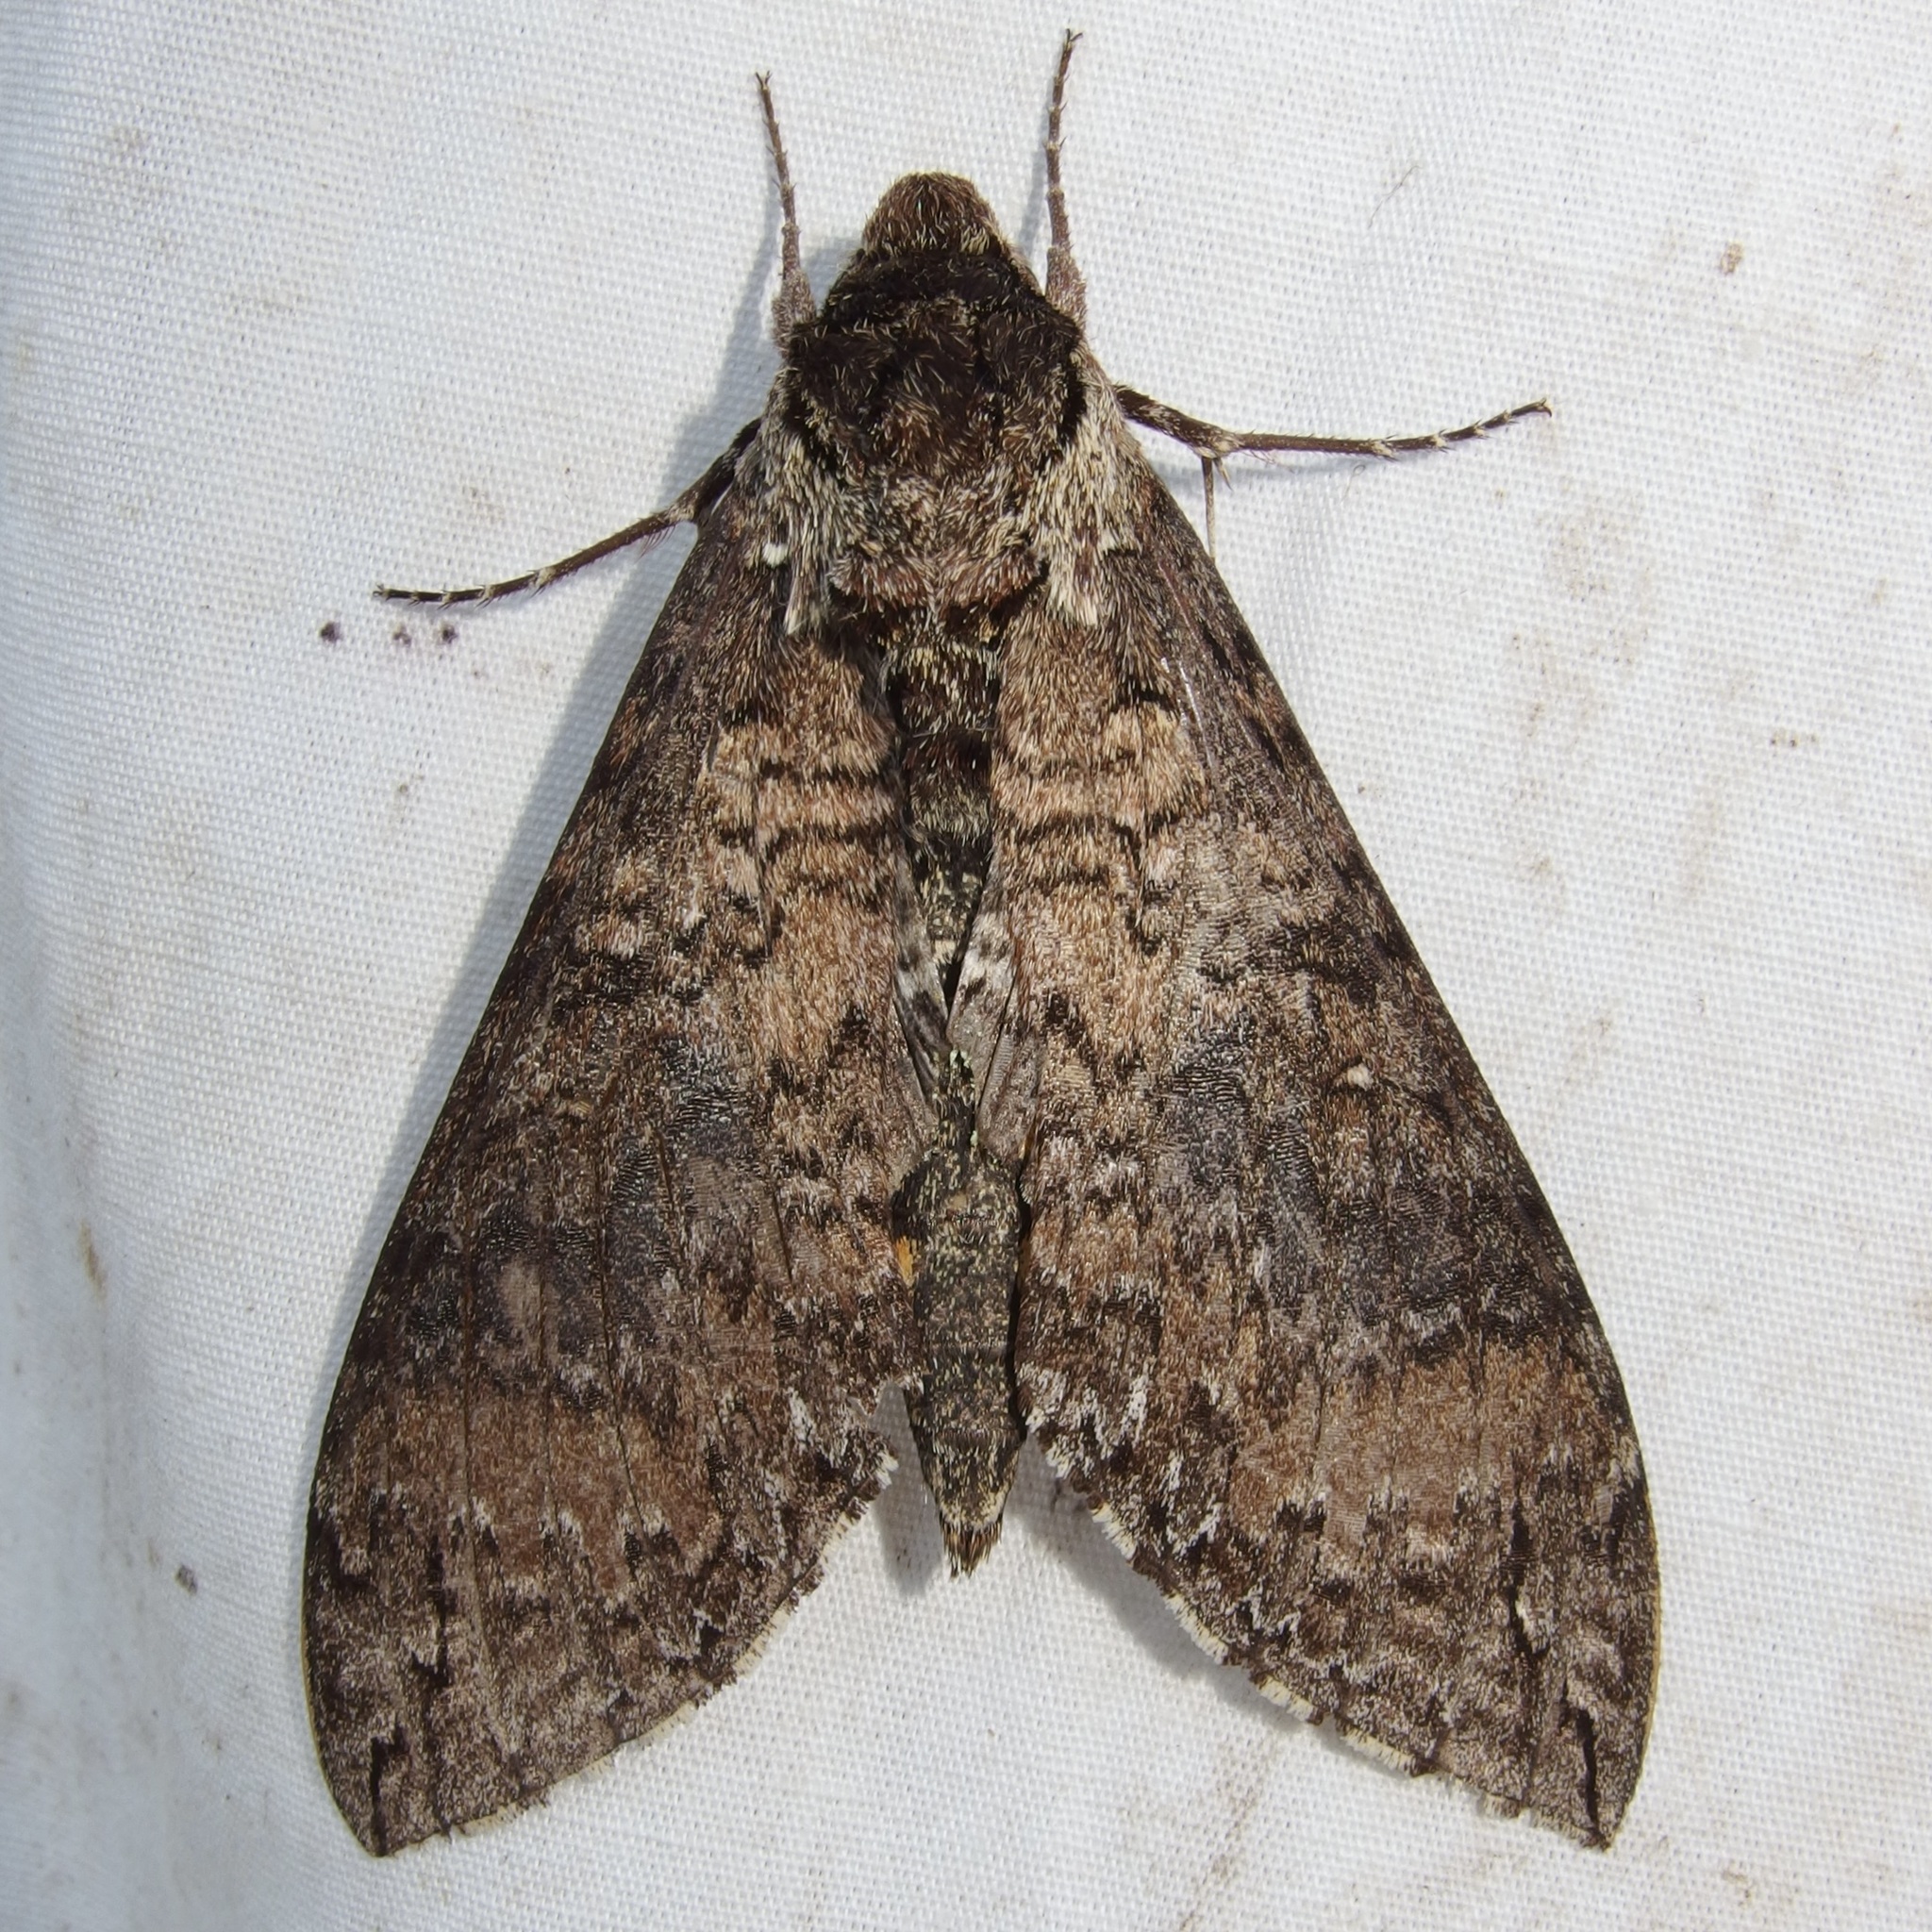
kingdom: Animalia
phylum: Arthropoda
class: Insecta
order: Lepidoptera
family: Sphingidae
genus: Manduca
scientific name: Manduca occulta
